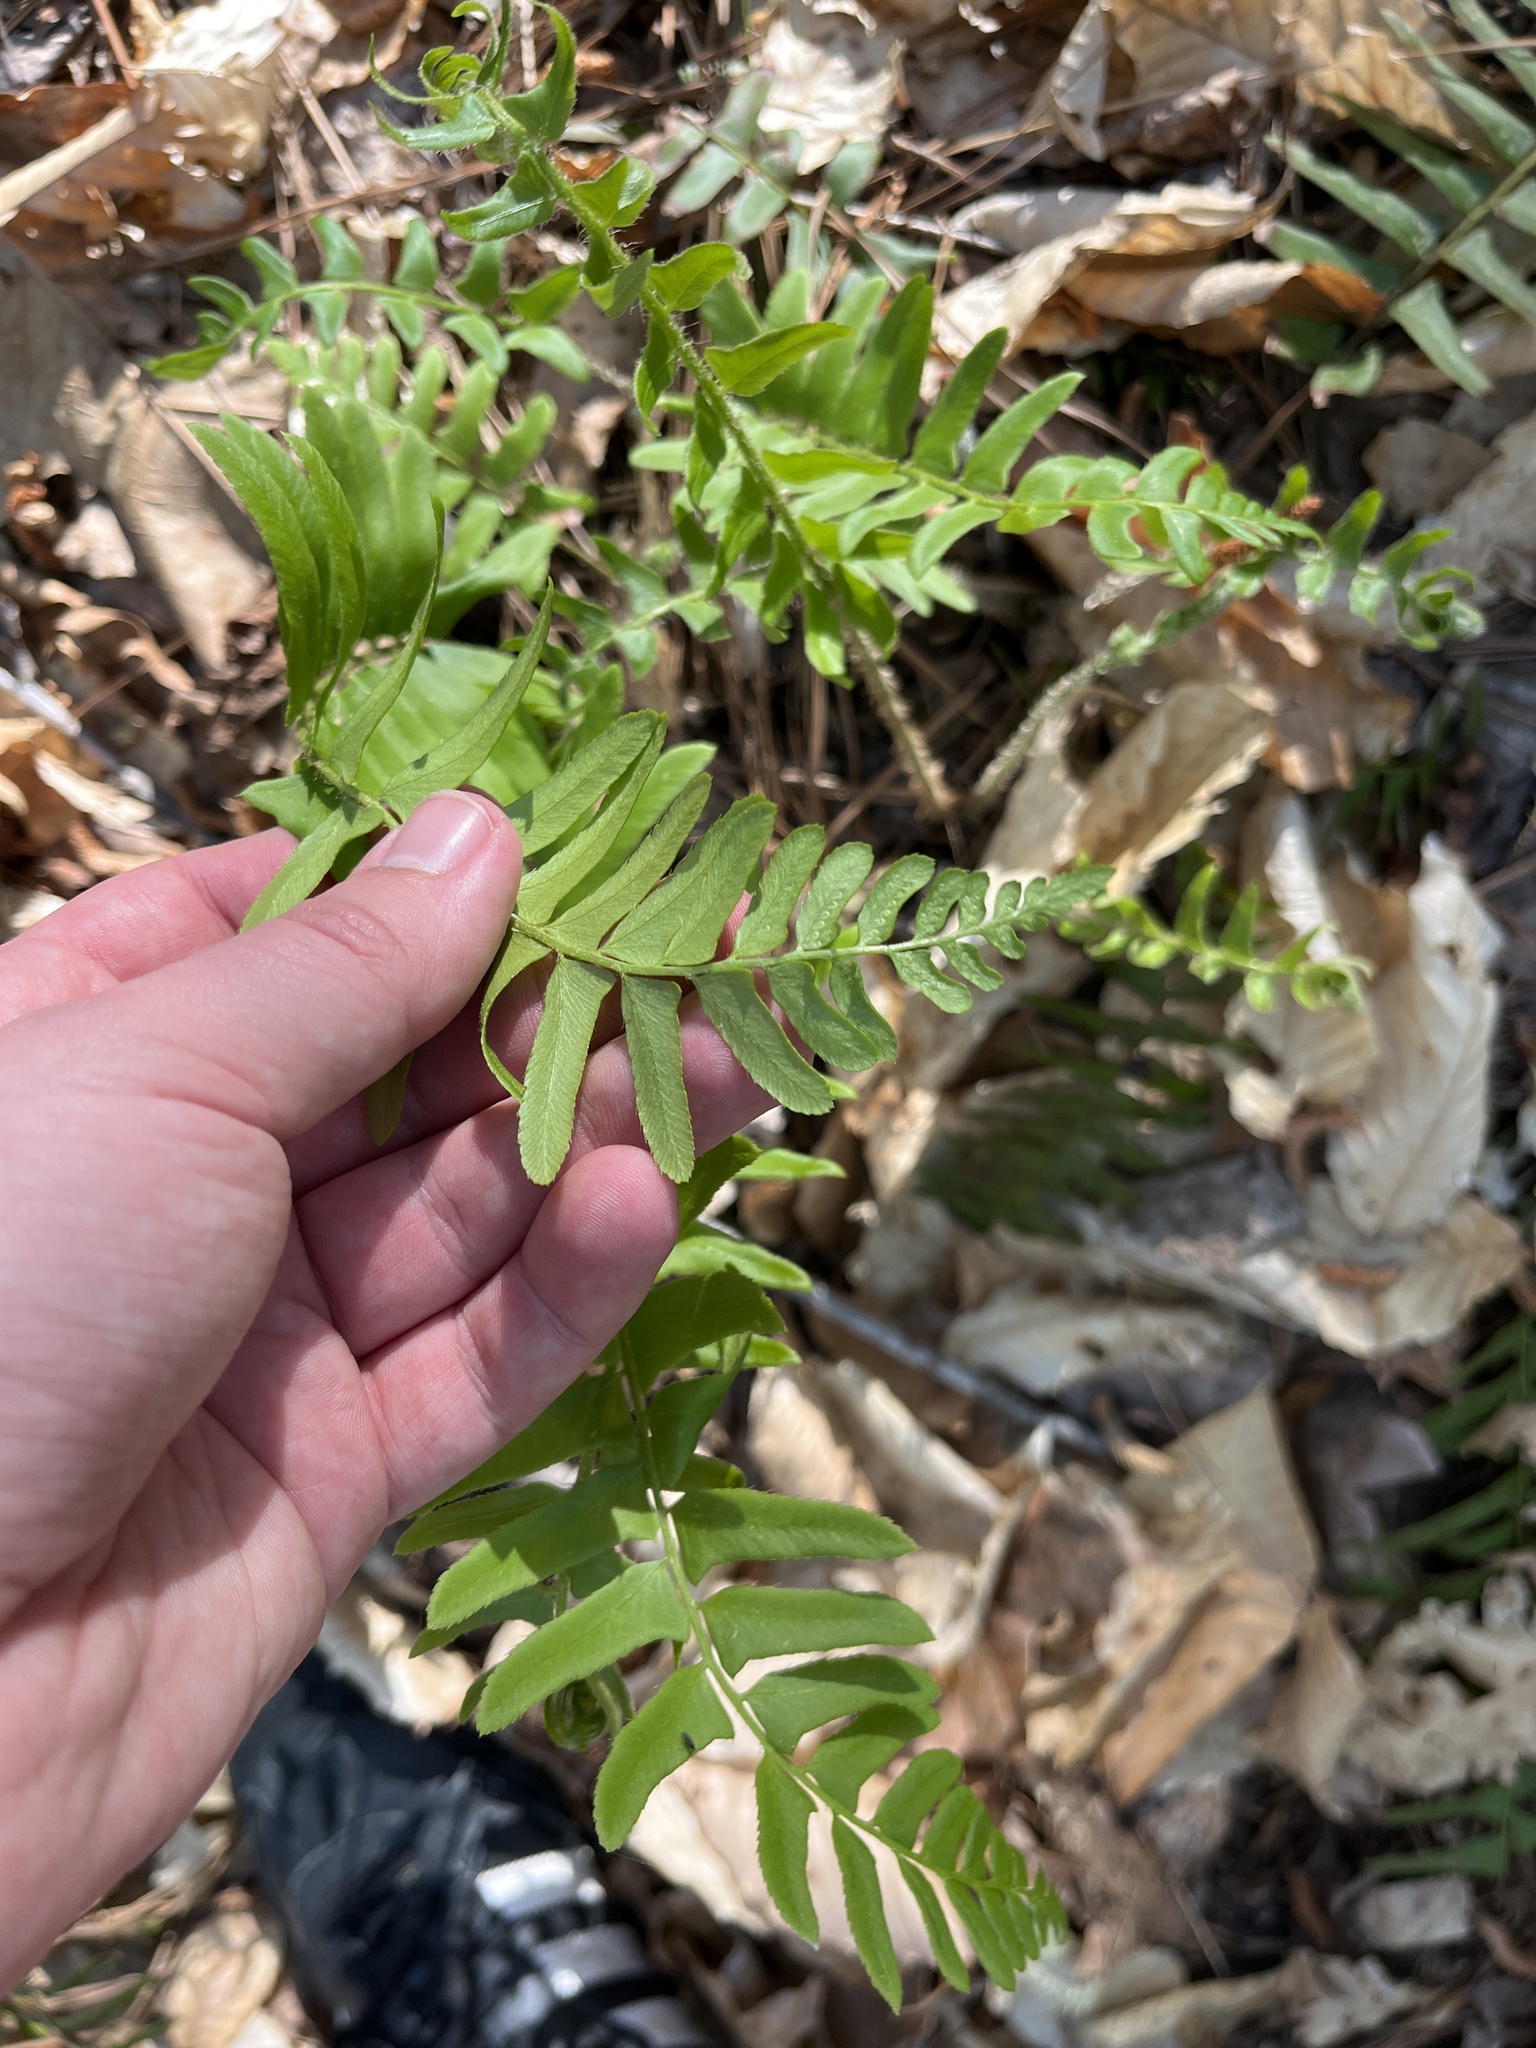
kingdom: Plantae
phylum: Tracheophyta
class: Polypodiopsida
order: Polypodiales
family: Dryopteridaceae
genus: Polystichum
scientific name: Polystichum acrostichoides
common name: Christmas fern
